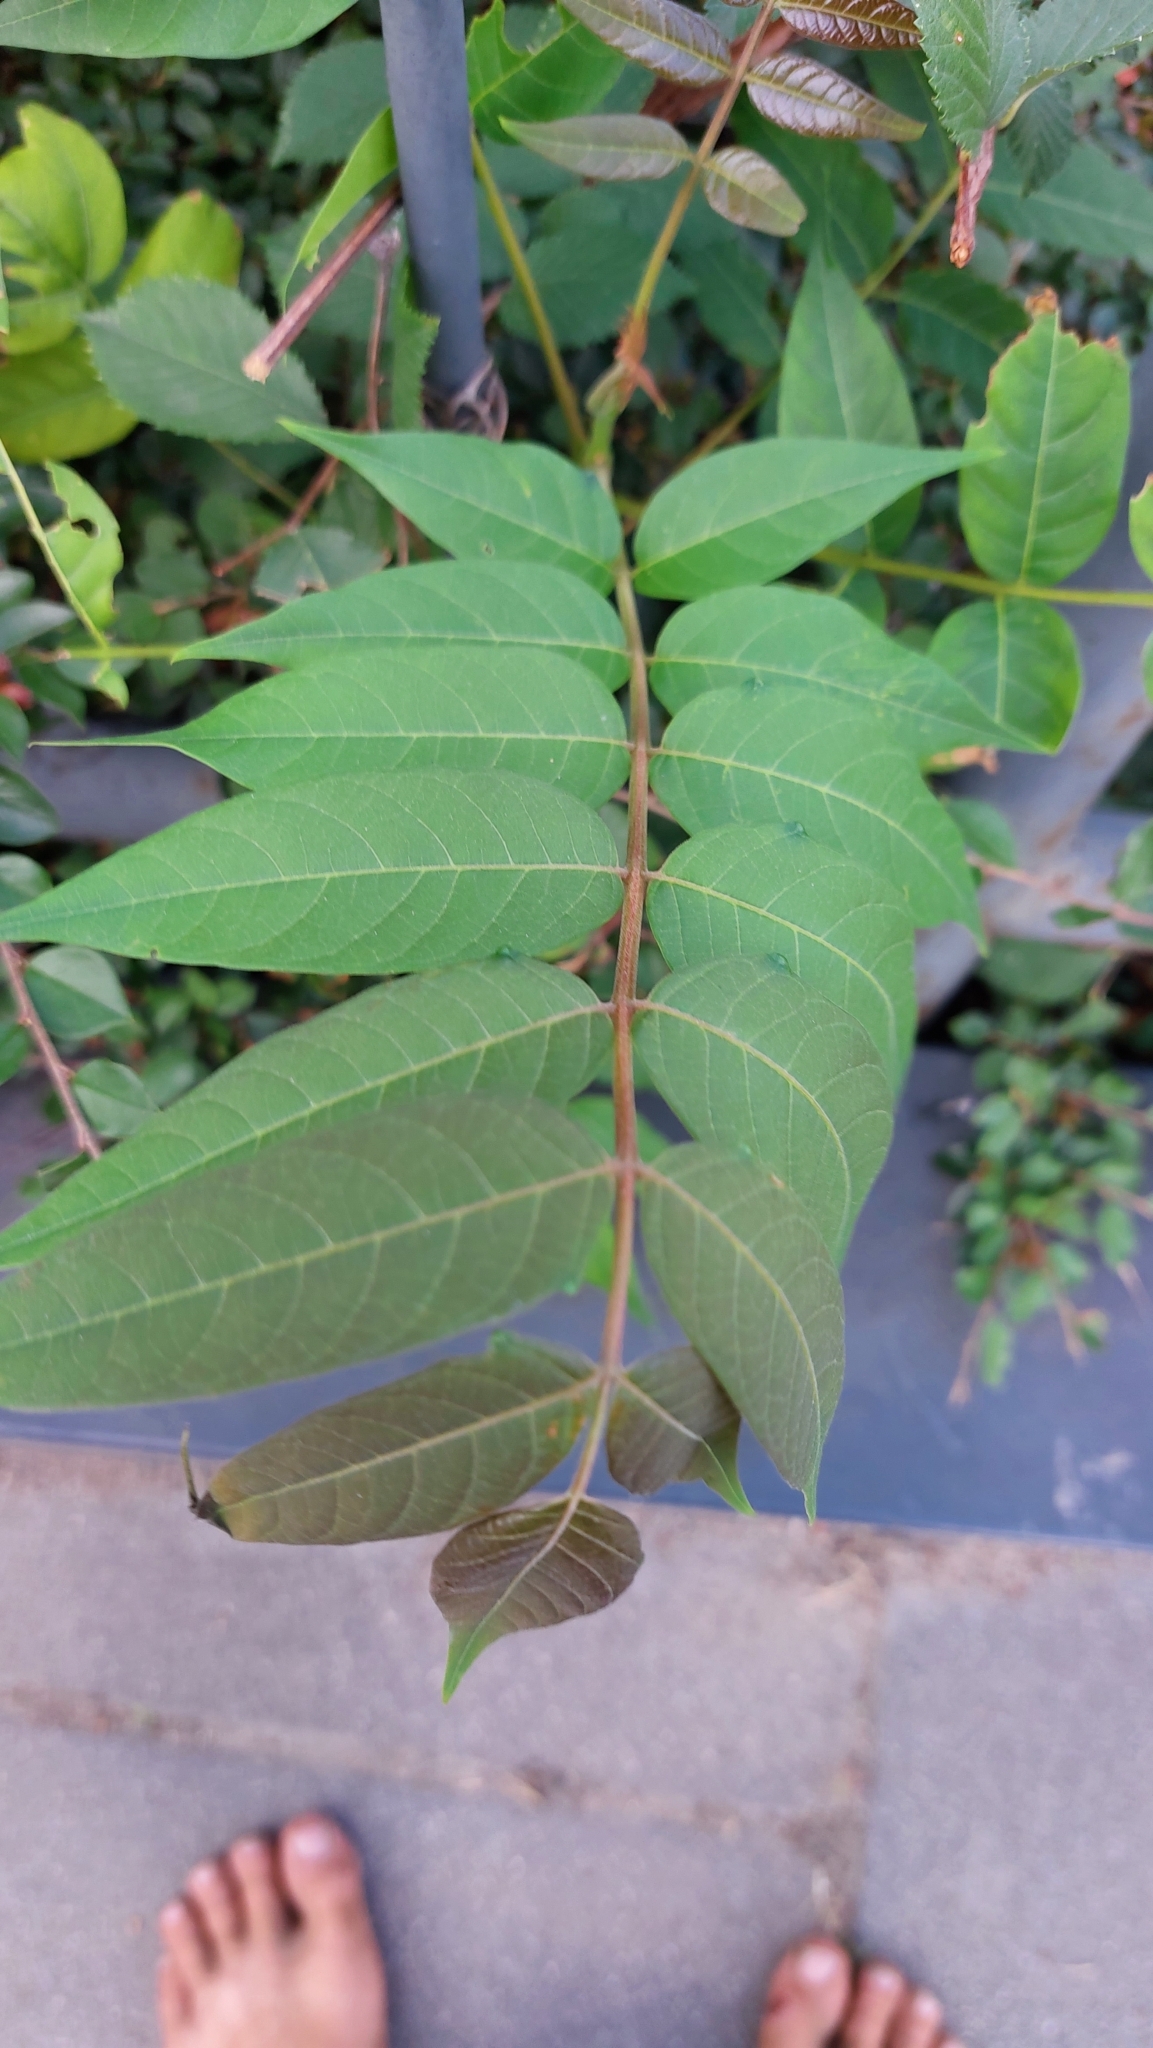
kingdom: Plantae
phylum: Tracheophyta
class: Magnoliopsida
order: Sapindales
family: Simaroubaceae
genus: Ailanthus
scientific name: Ailanthus altissima
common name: Tree-of-heaven
